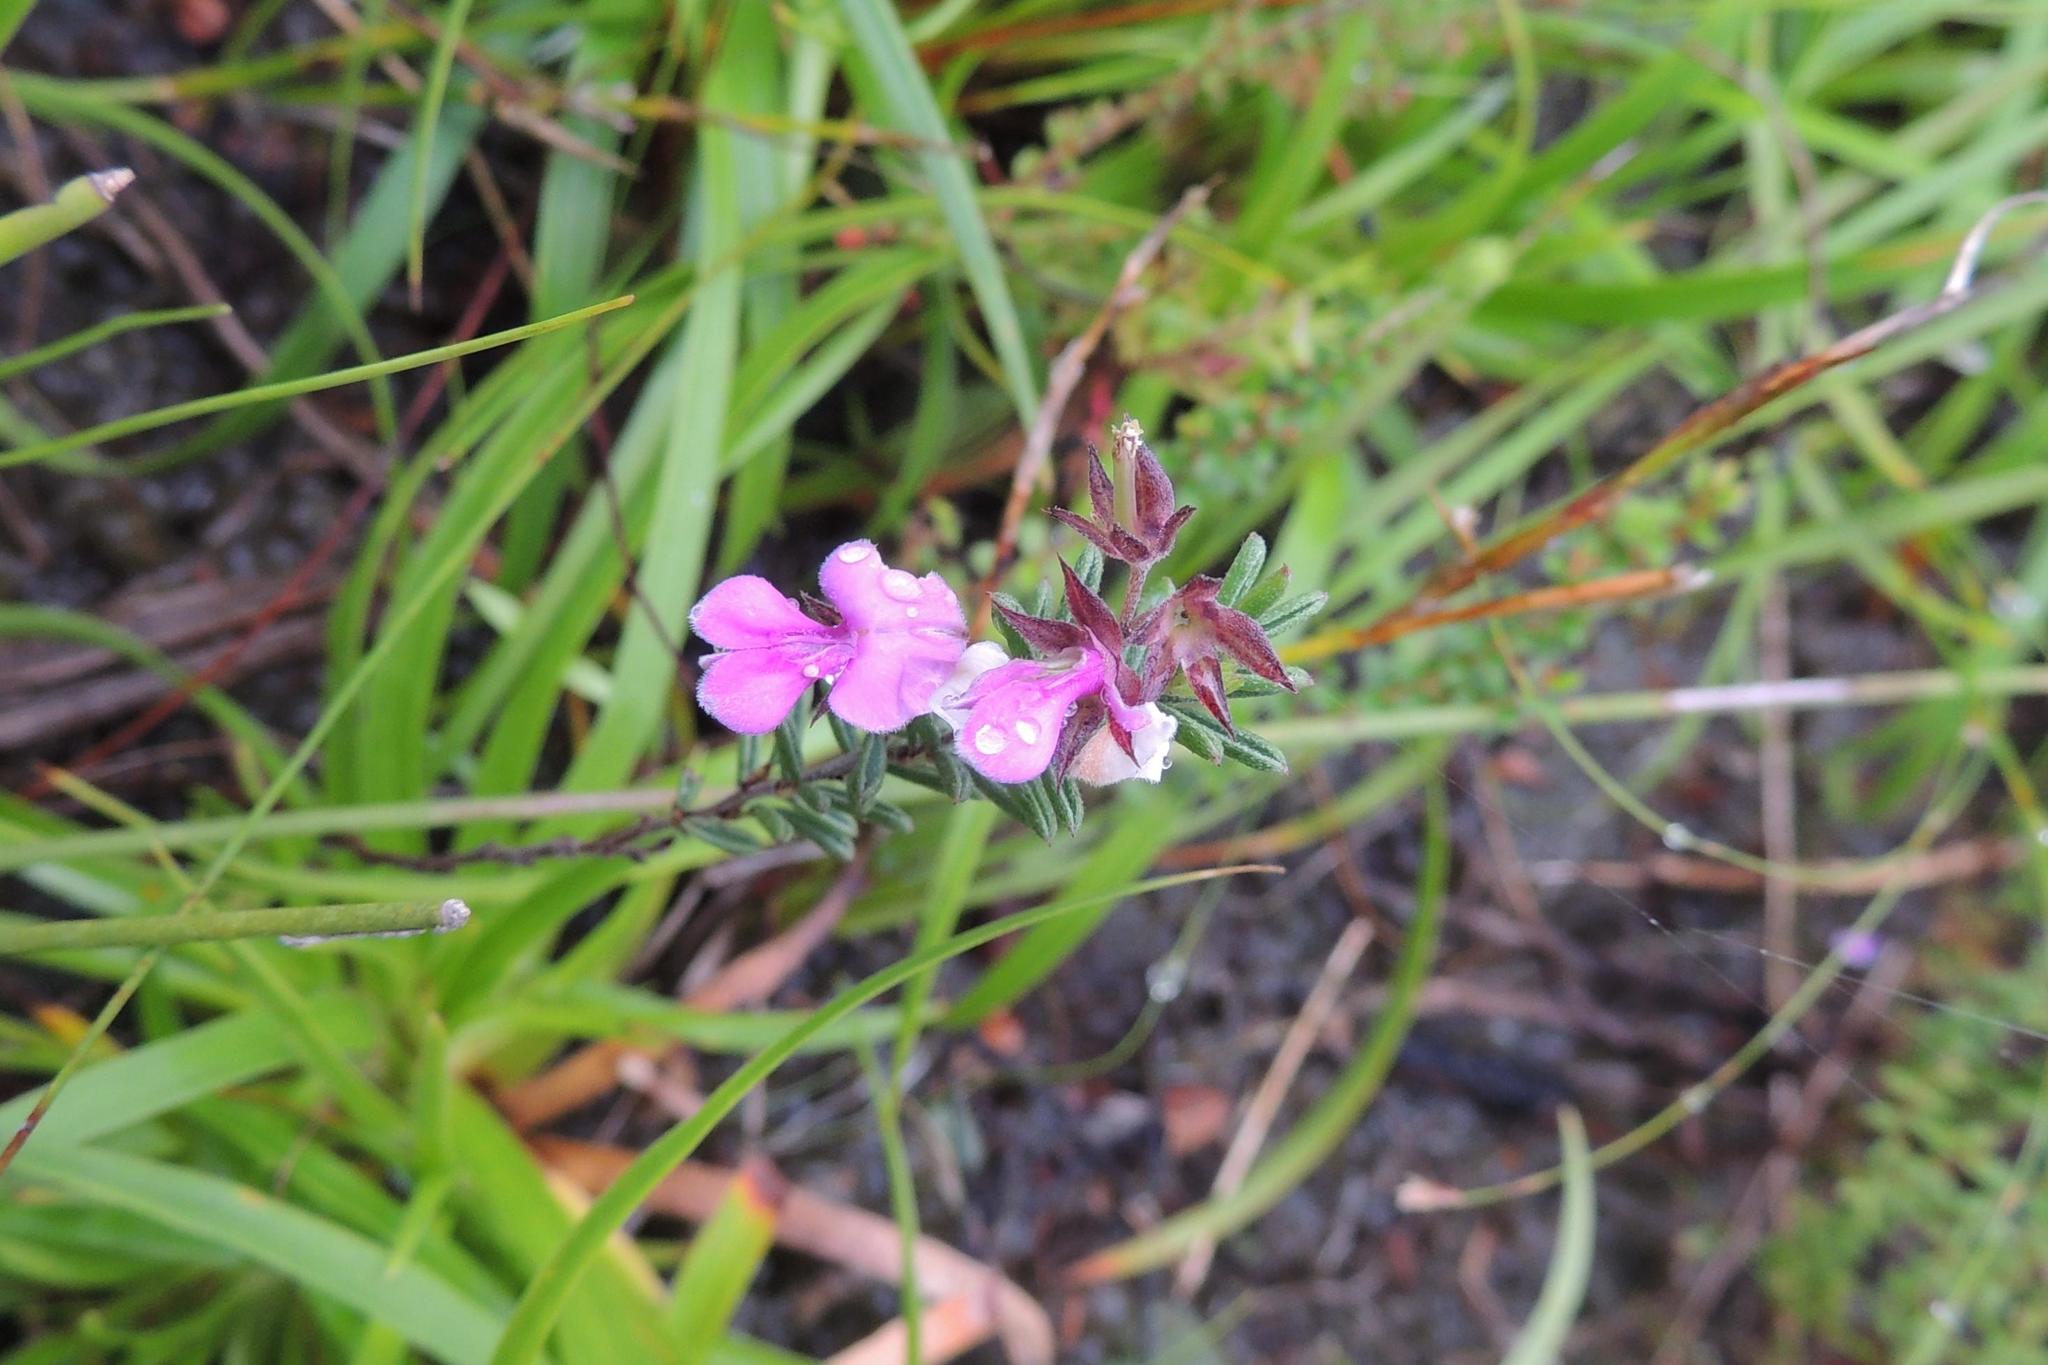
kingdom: Plantae
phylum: Tracheophyta
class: Magnoliopsida
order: Fabales
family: Fabaceae
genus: Indigofera
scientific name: Indigofera concava
